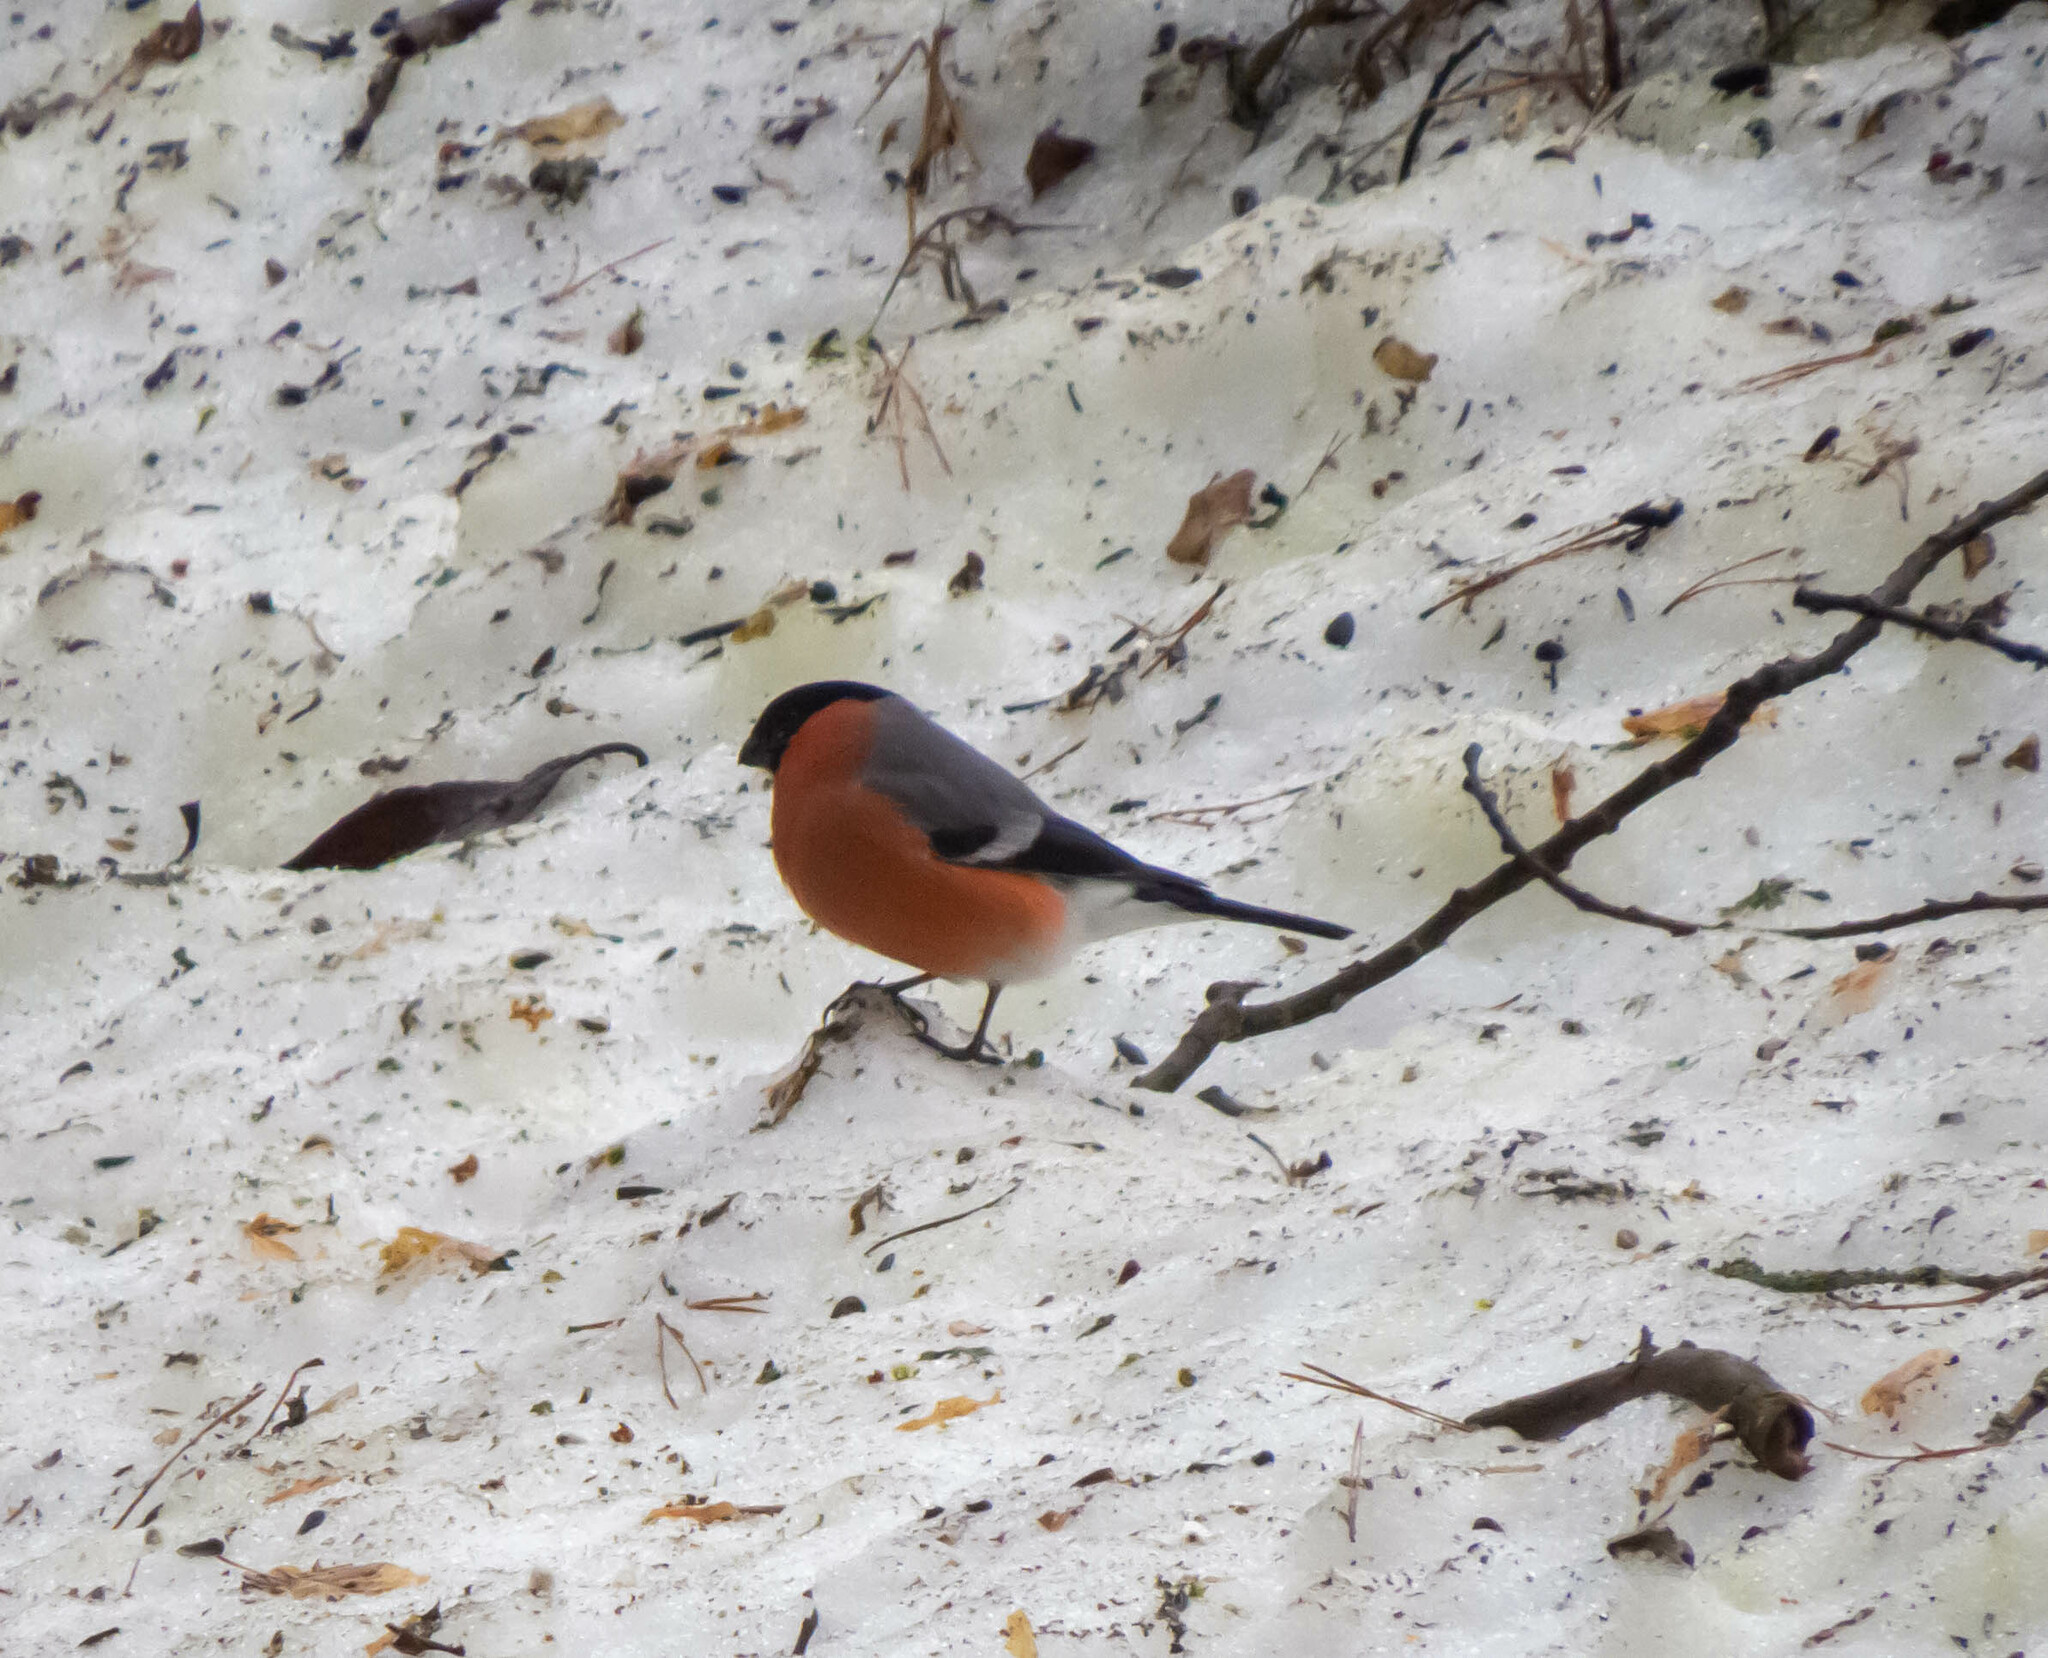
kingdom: Animalia
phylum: Chordata
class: Aves
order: Passeriformes
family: Fringillidae
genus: Pyrrhula
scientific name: Pyrrhula pyrrhula
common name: Eurasian bullfinch
